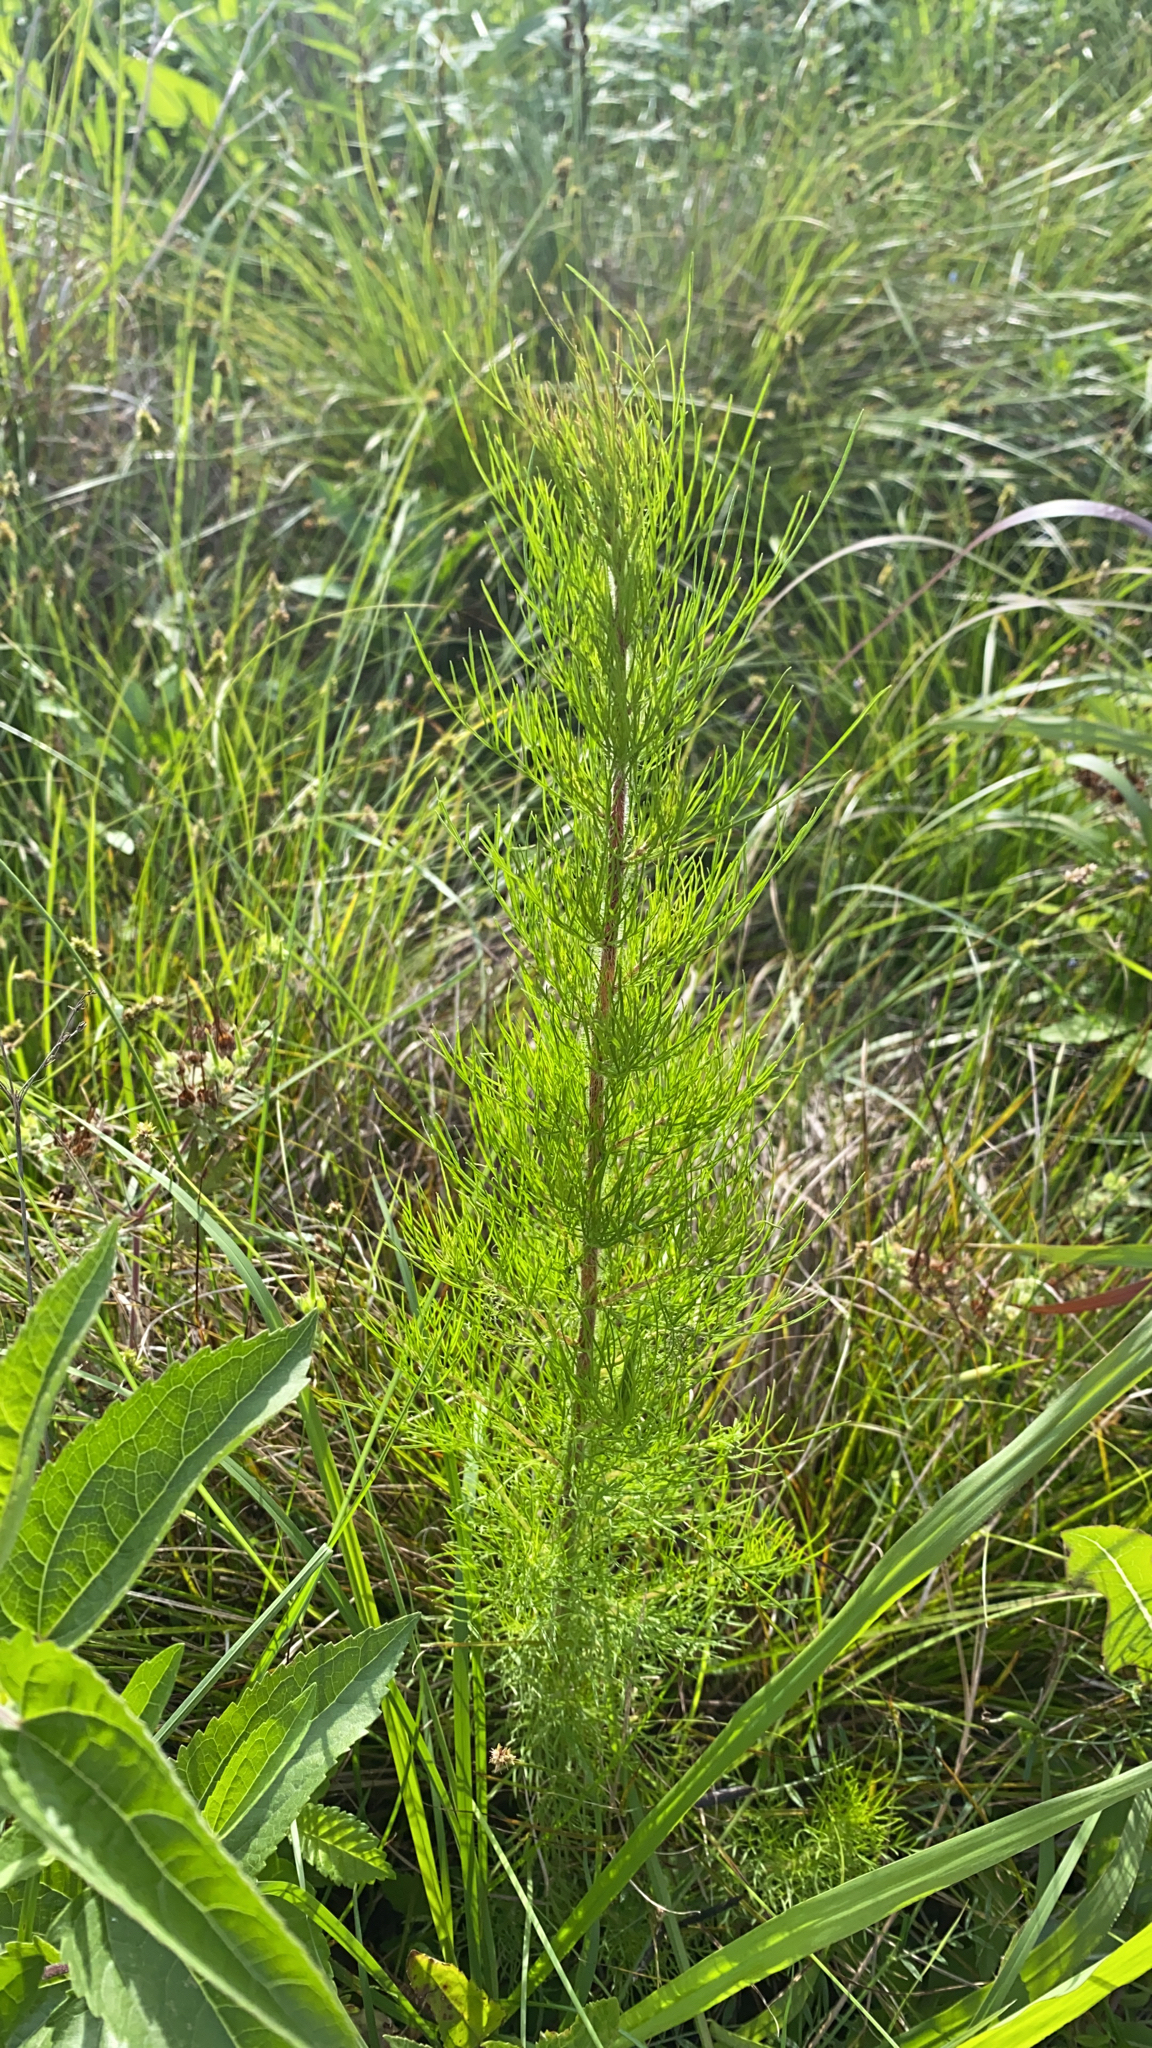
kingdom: Plantae
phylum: Tracheophyta
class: Magnoliopsida
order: Asterales
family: Asteraceae
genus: Eupatorium
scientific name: Eupatorium capillifolium
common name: Dog-fennel
